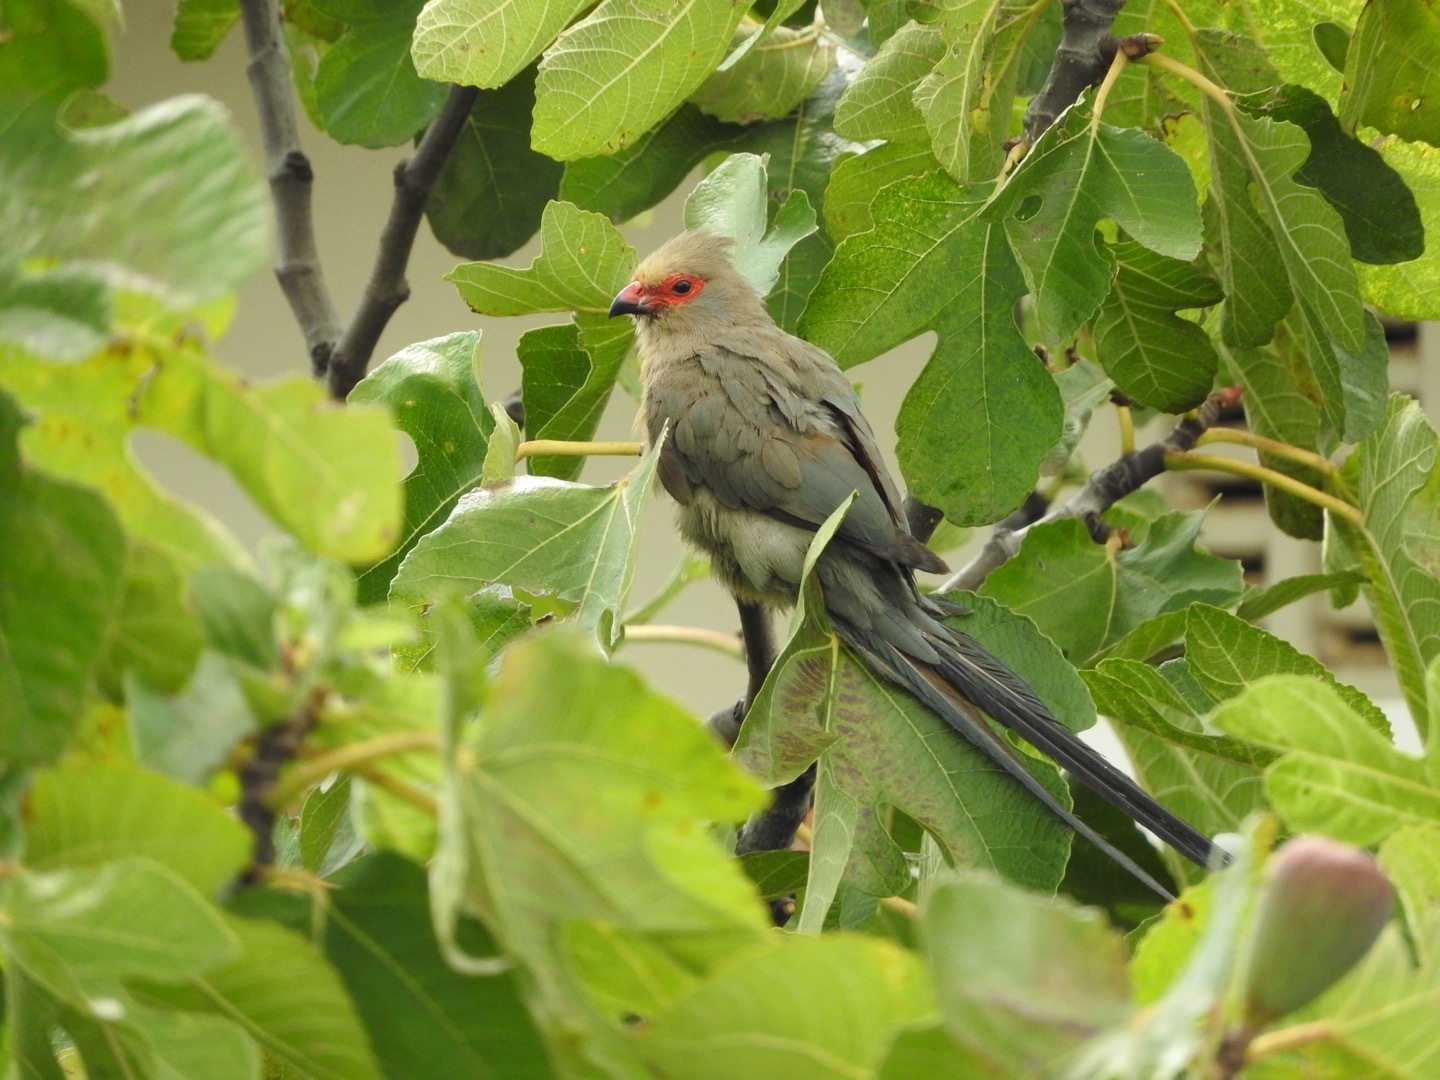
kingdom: Animalia
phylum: Chordata
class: Aves
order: Coliiformes
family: Coliidae
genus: Urocolius
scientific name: Urocolius indicus
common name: Red-faced mousebird
